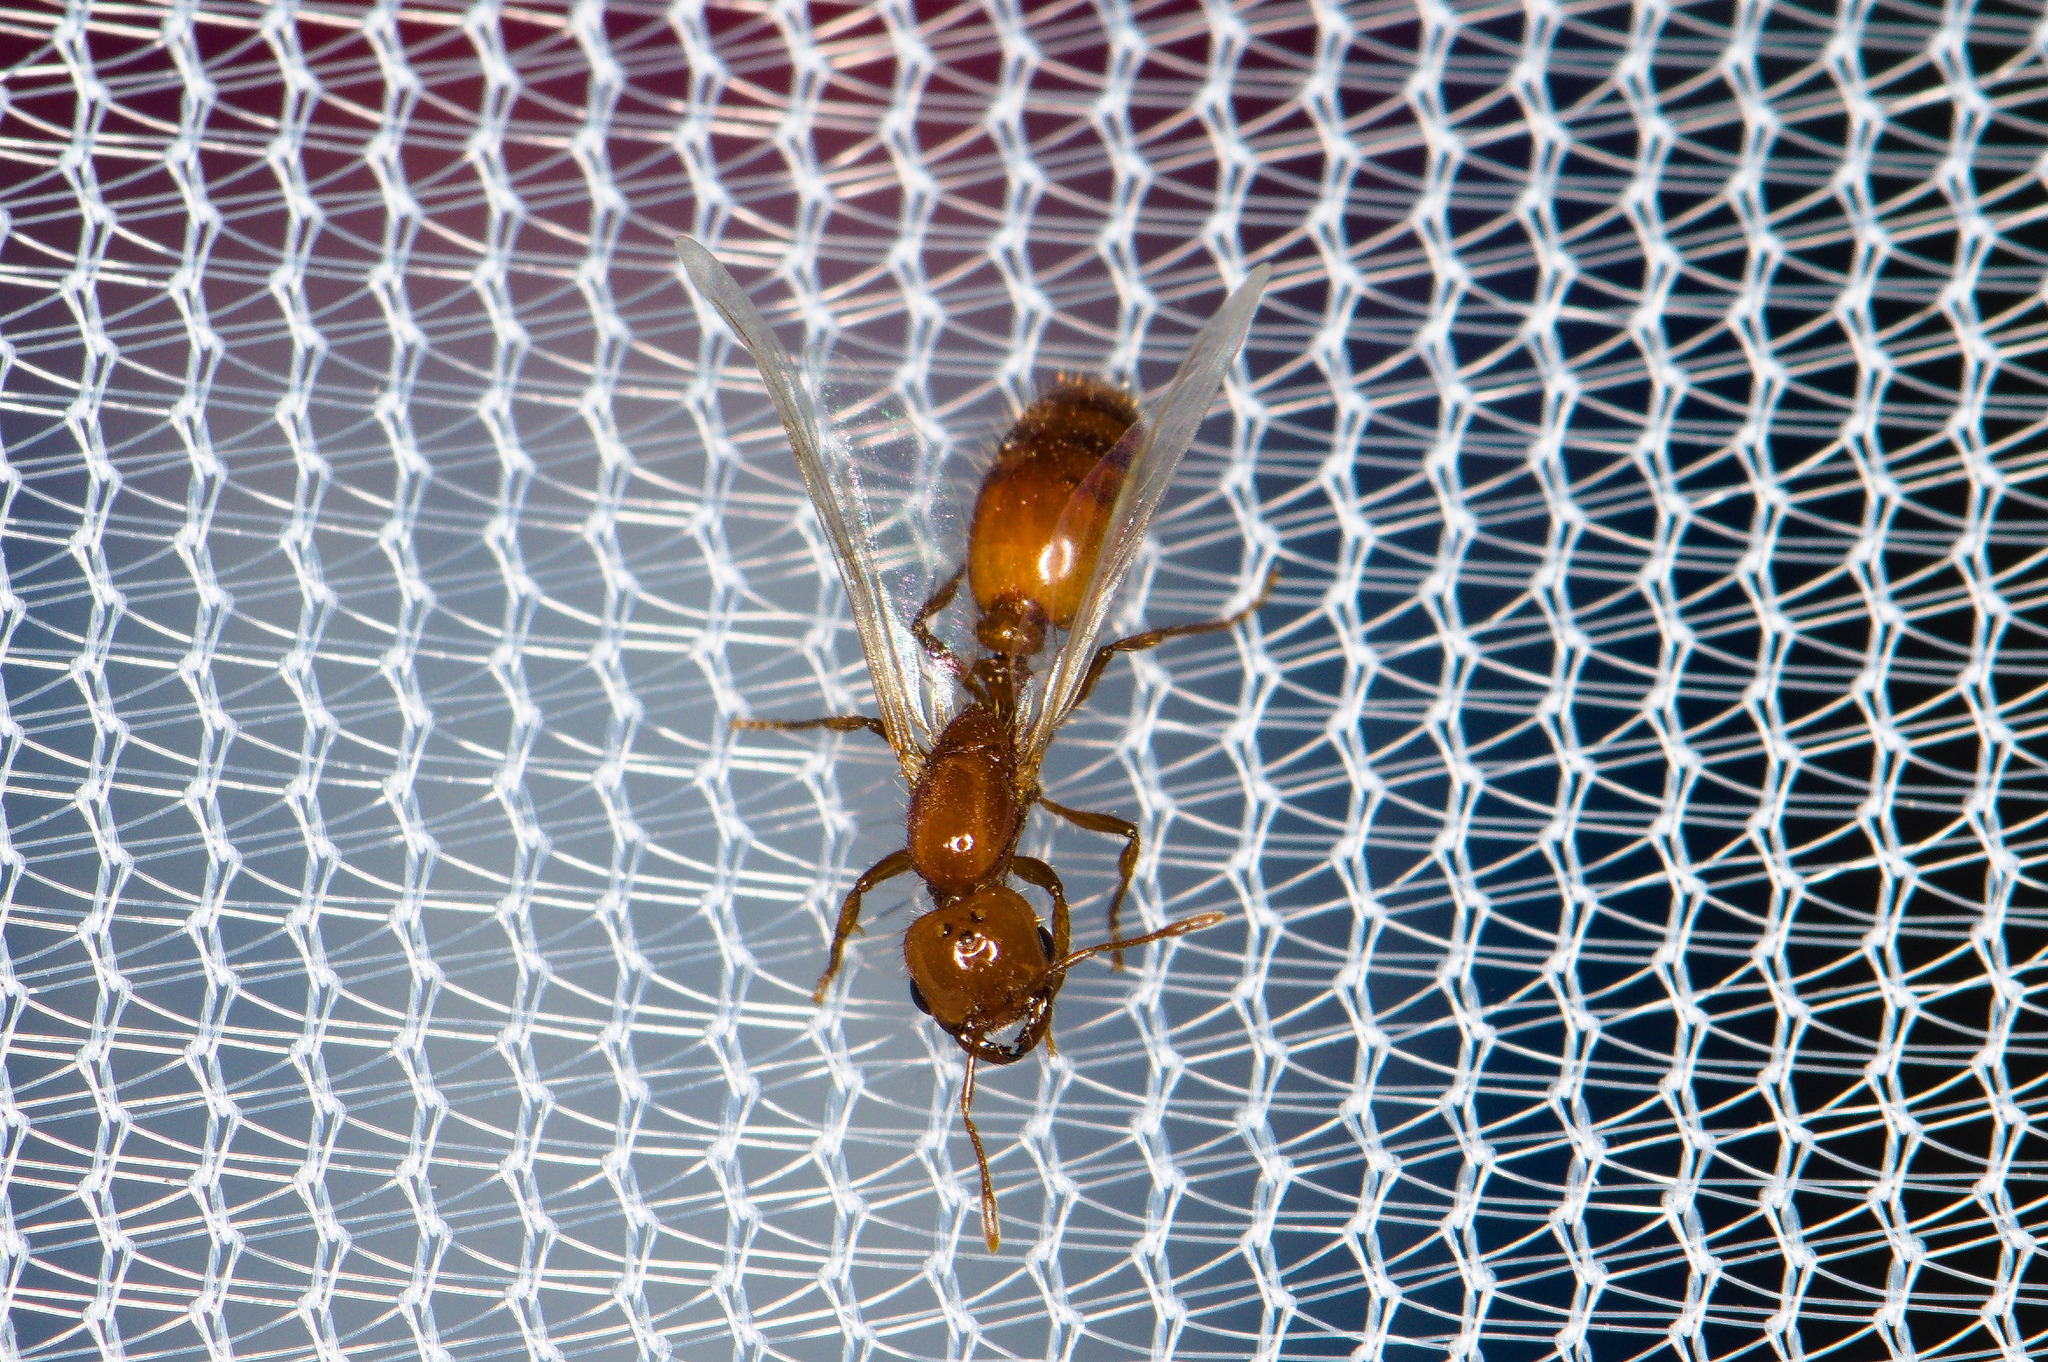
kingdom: Animalia
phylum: Arthropoda
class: Insecta
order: Hymenoptera
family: Formicidae
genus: Solenopsis
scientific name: Solenopsis amblychila
